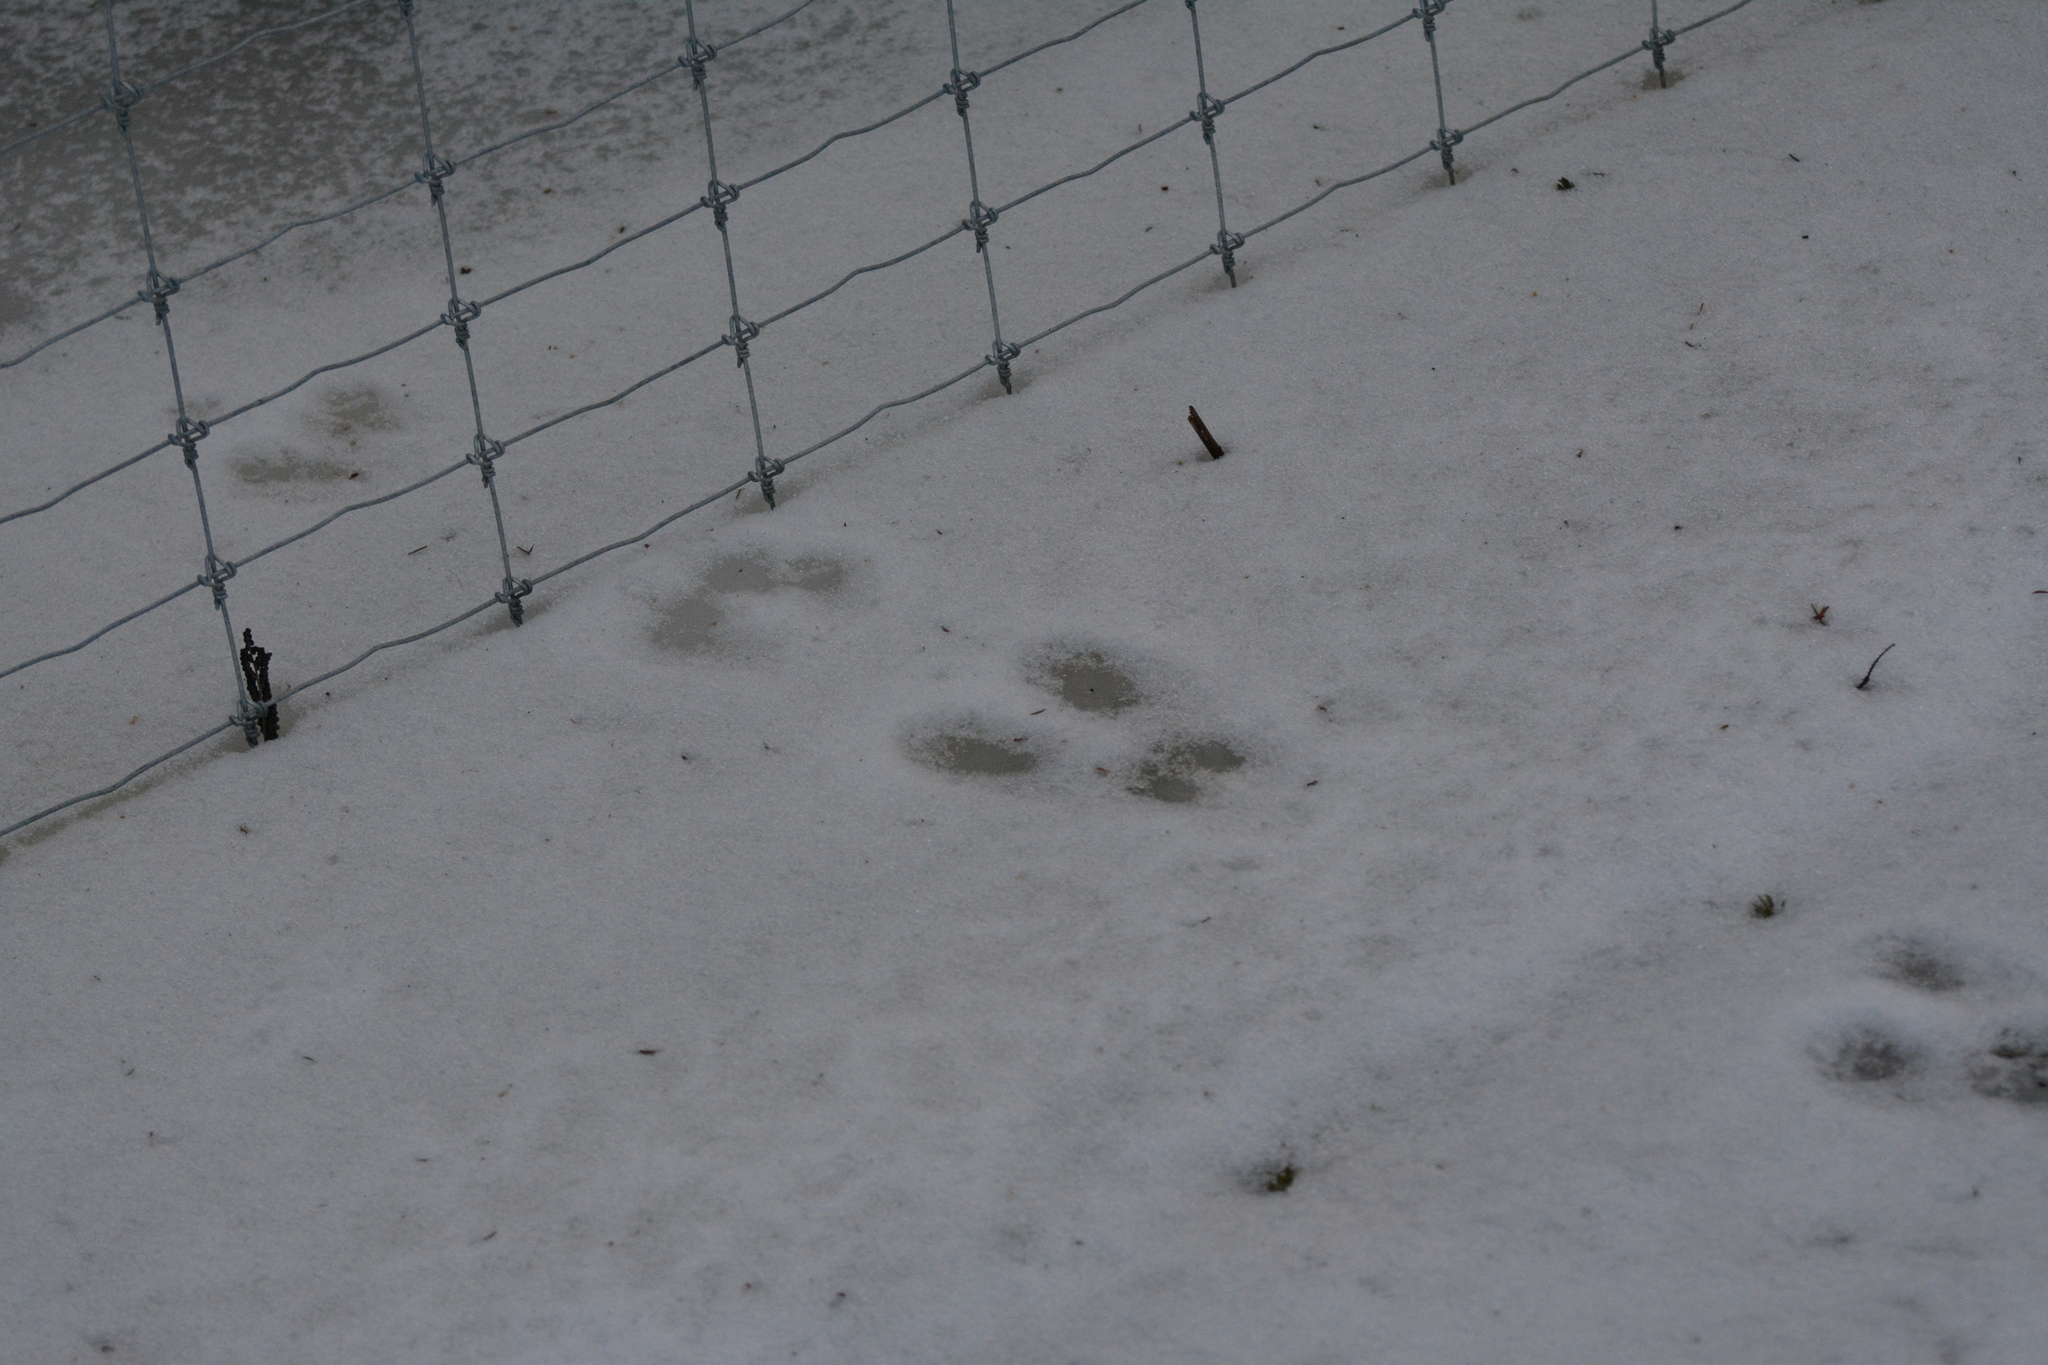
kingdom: Animalia
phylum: Chordata
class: Mammalia
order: Lagomorpha
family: Leporidae
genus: Lepus
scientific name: Lepus americanus
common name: Snowshoe hare
